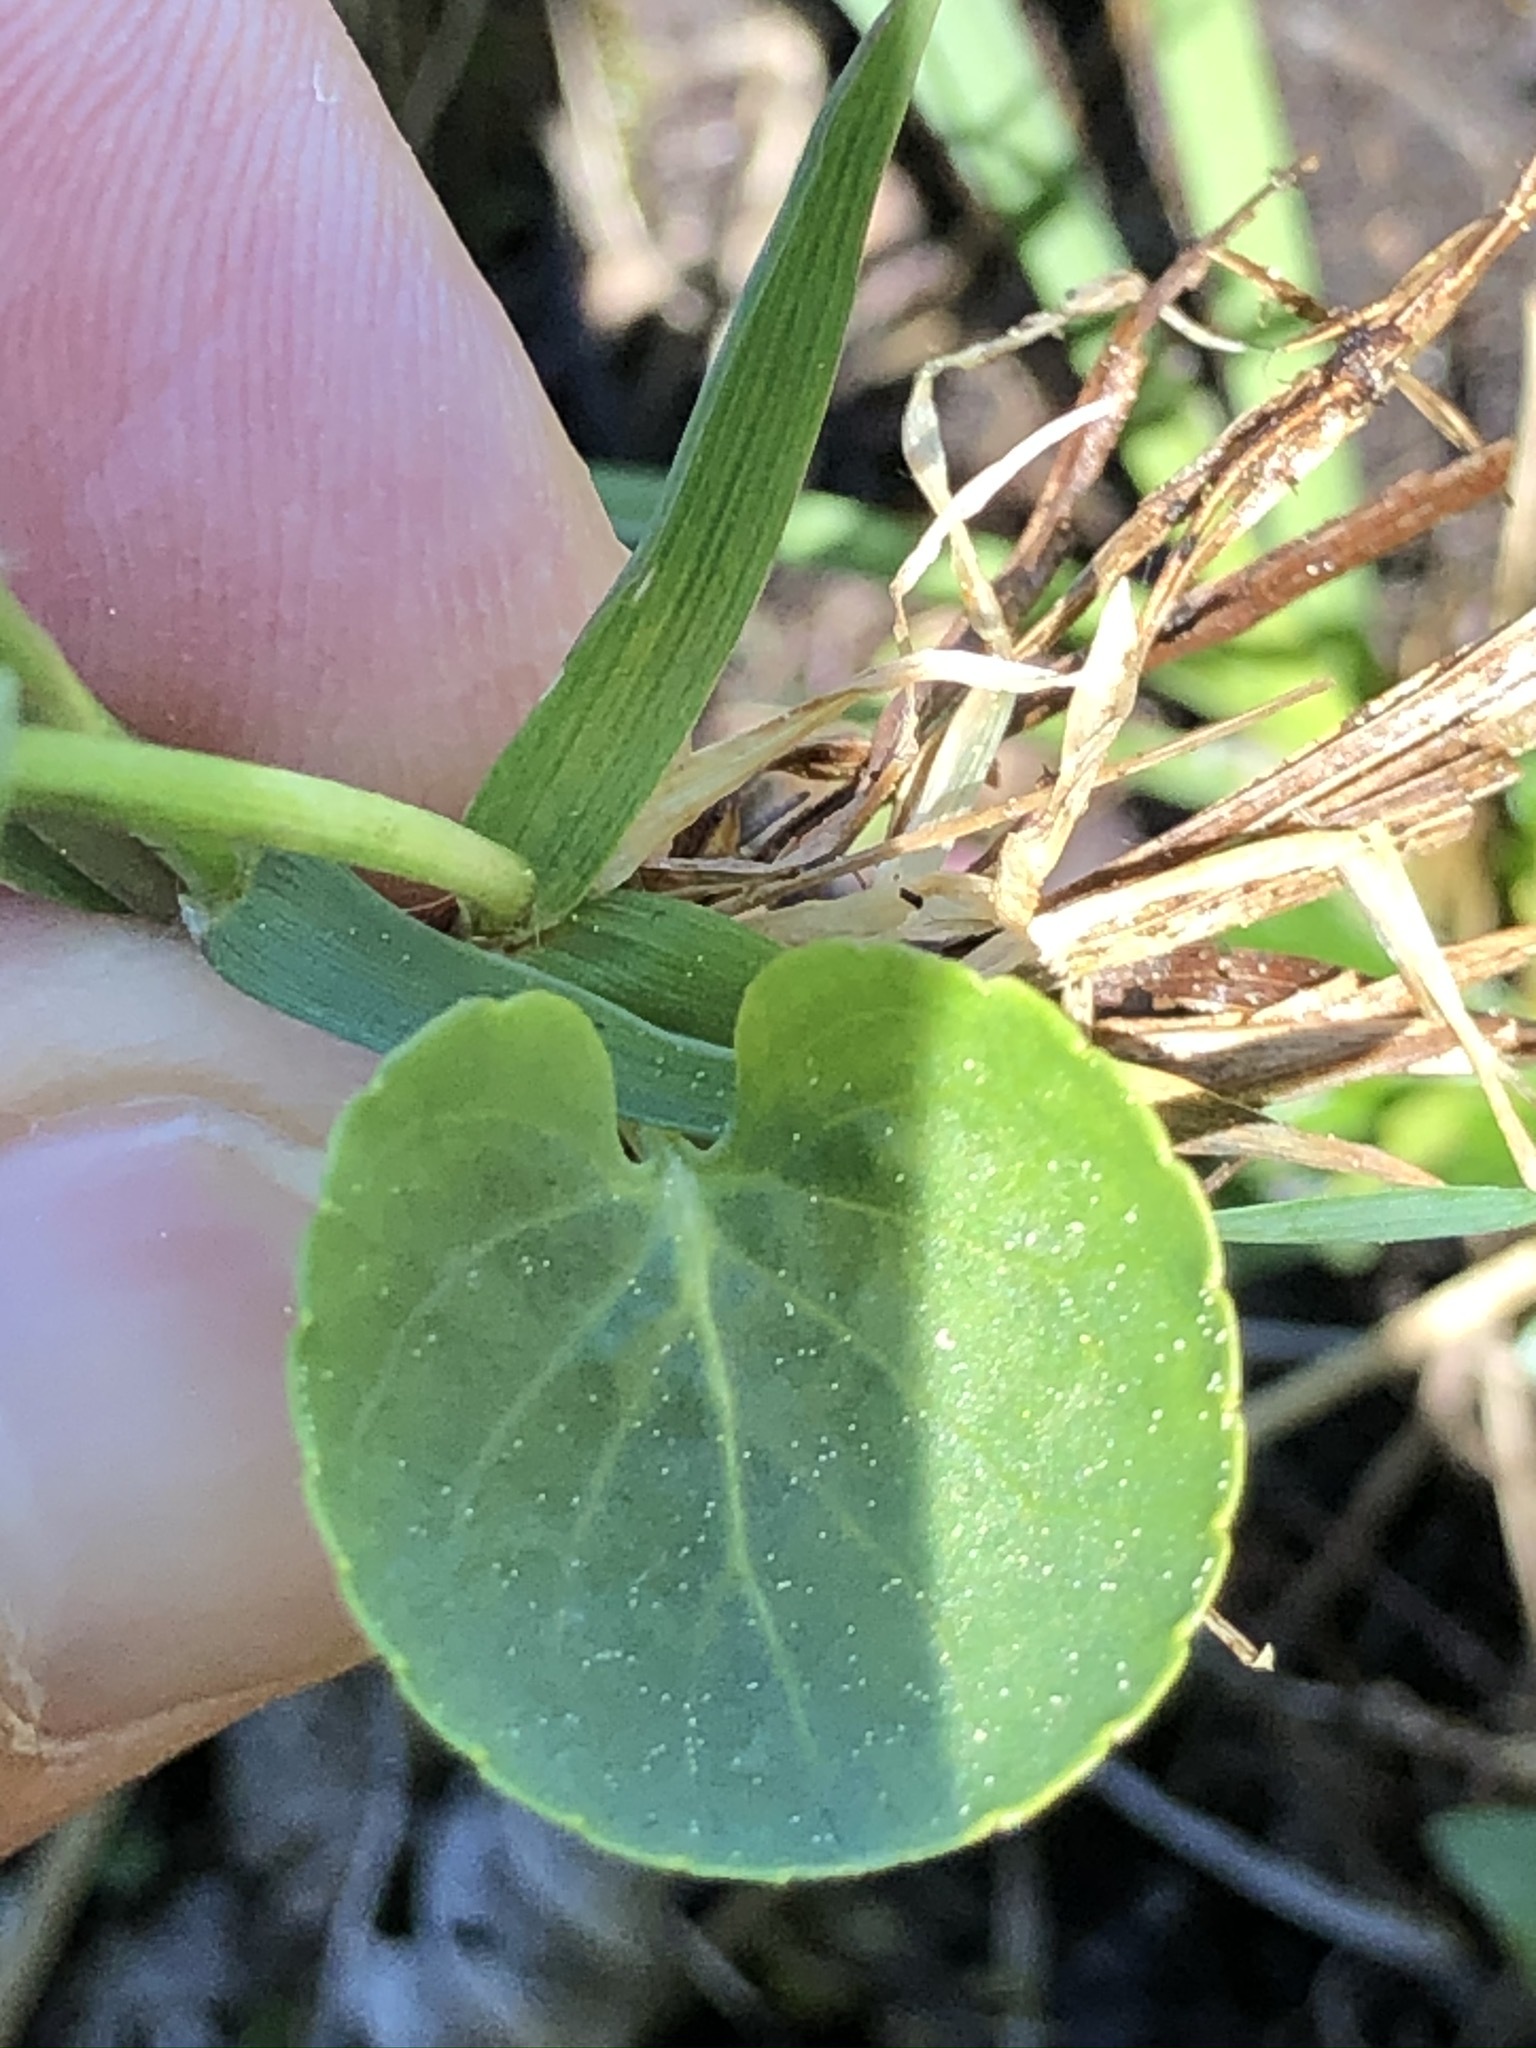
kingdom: Plantae
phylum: Tracheophyta
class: Magnoliopsida
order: Malpighiales
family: Violaceae
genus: Viola
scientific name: Viola palustris
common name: Marsh violet
